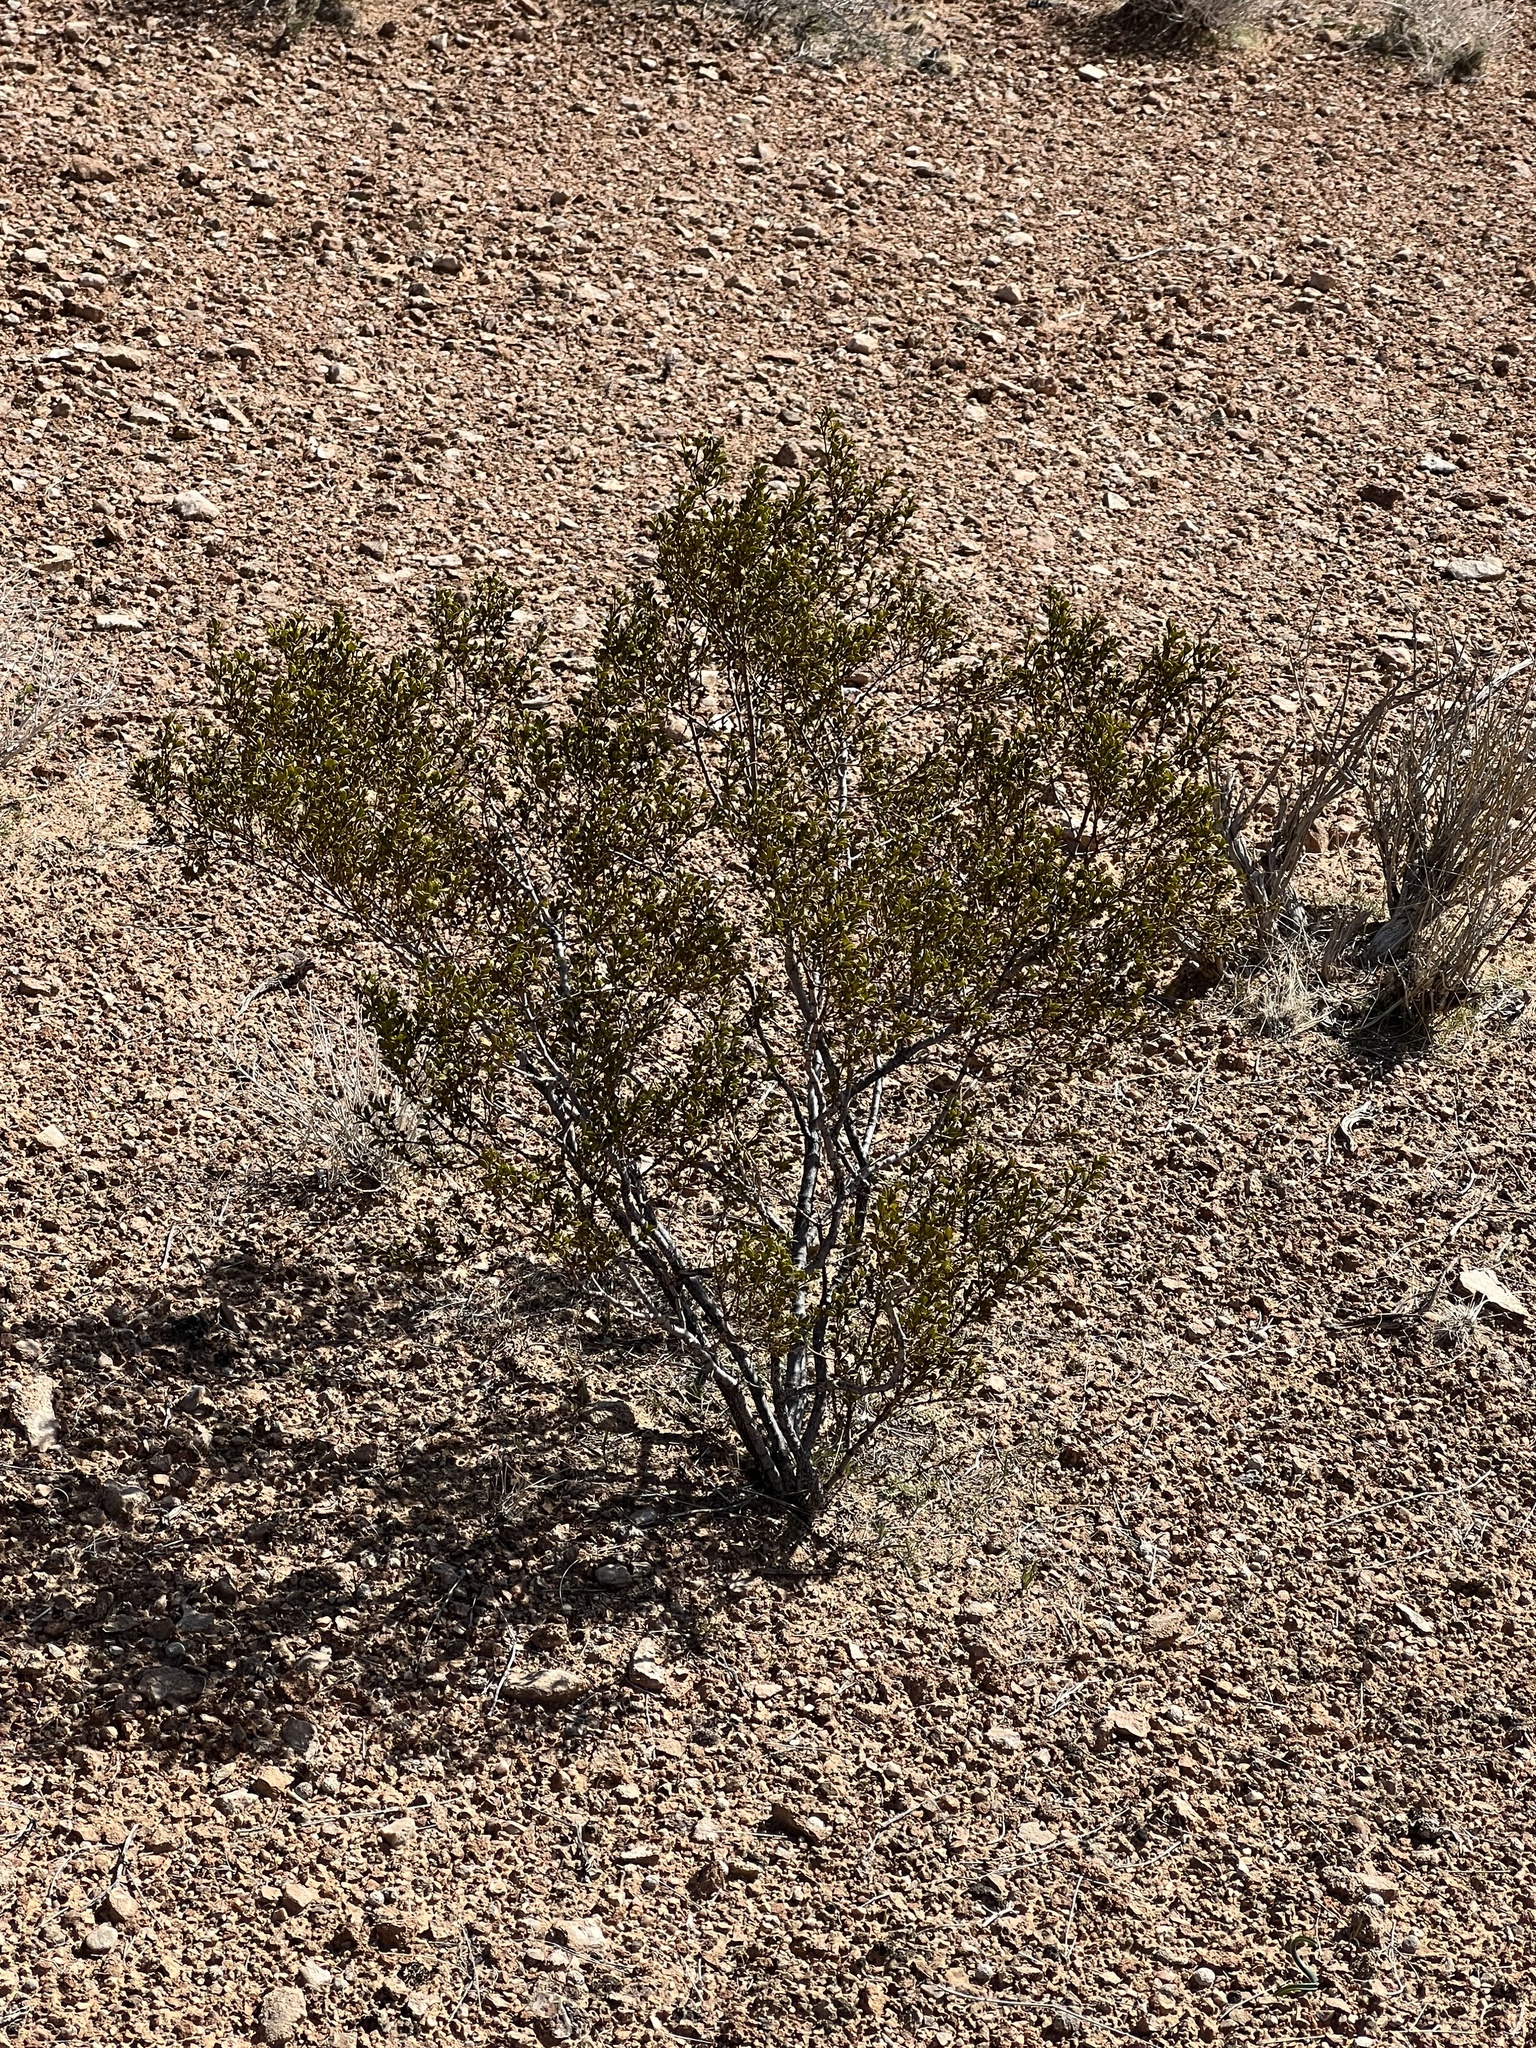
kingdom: Plantae
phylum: Tracheophyta
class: Magnoliopsida
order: Zygophyllales
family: Zygophyllaceae
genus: Larrea
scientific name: Larrea tridentata
